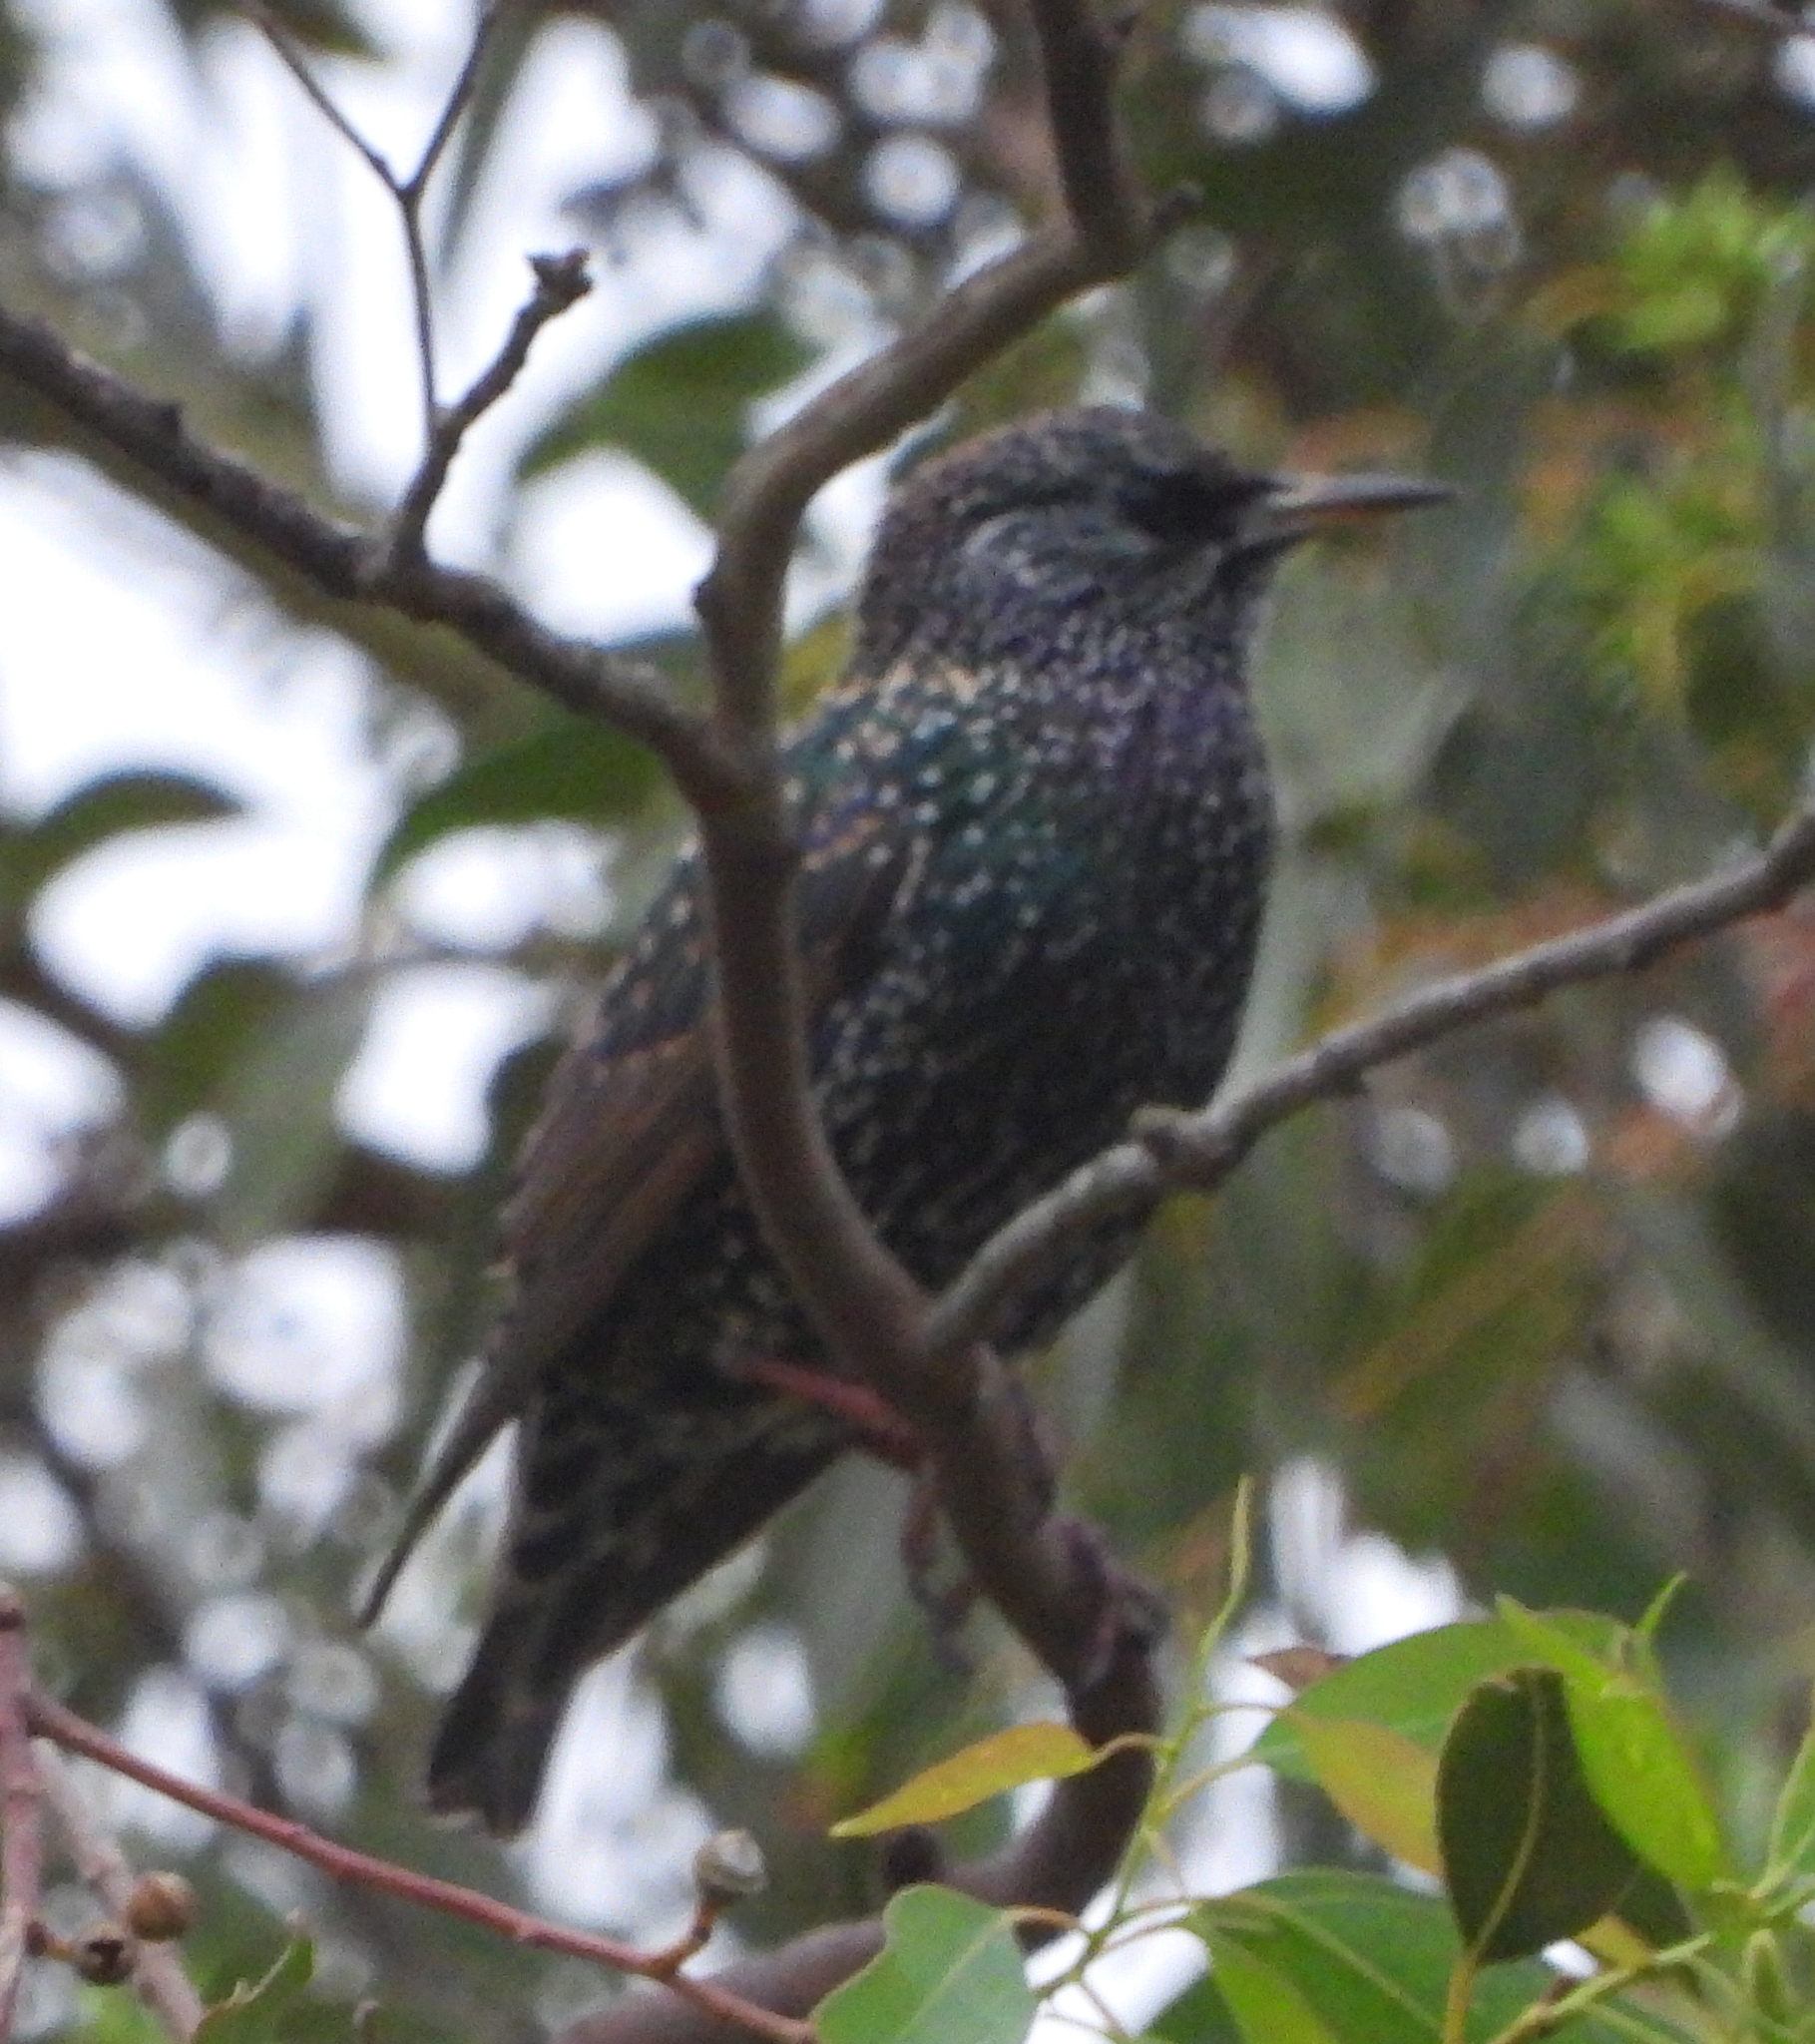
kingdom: Animalia
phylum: Chordata
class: Aves
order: Passeriformes
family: Sturnidae
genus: Sturnus
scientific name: Sturnus vulgaris
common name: Common starling
